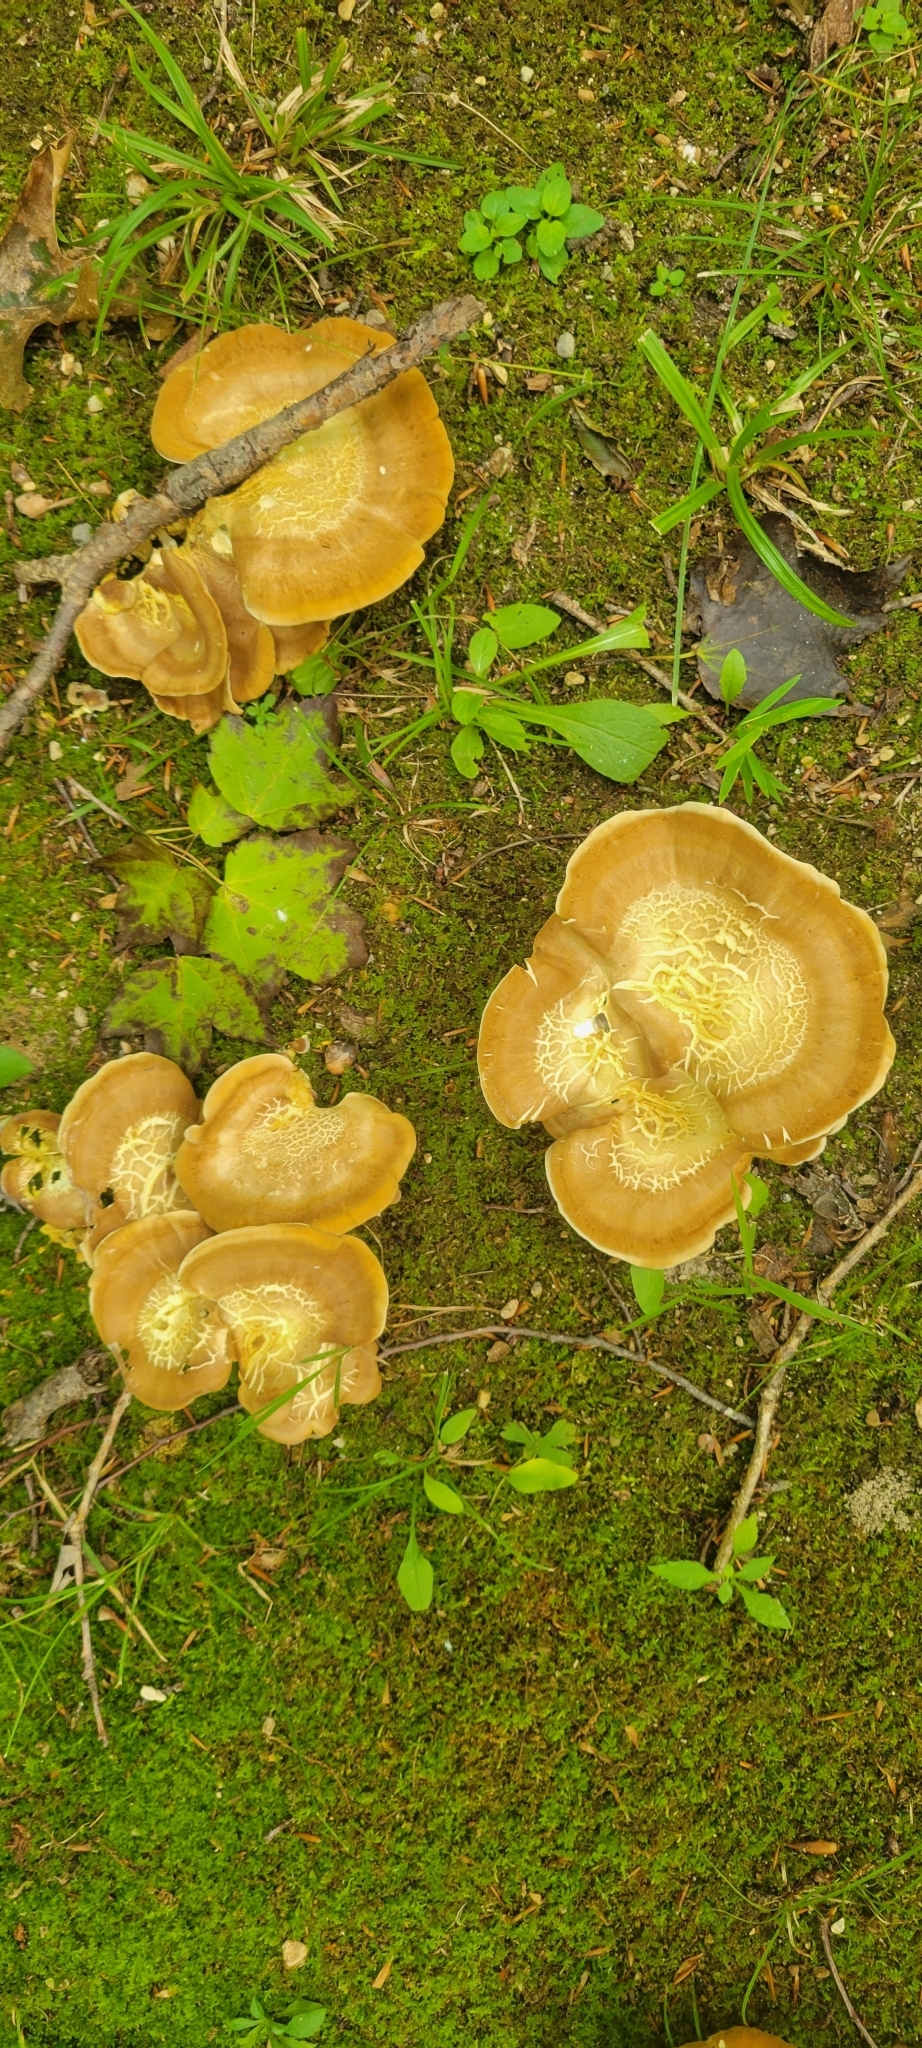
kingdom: Fungi
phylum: Basidiomycota
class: Agaricomycetes
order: Russulales
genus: Laeticutis
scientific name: Laeticutis cristata
